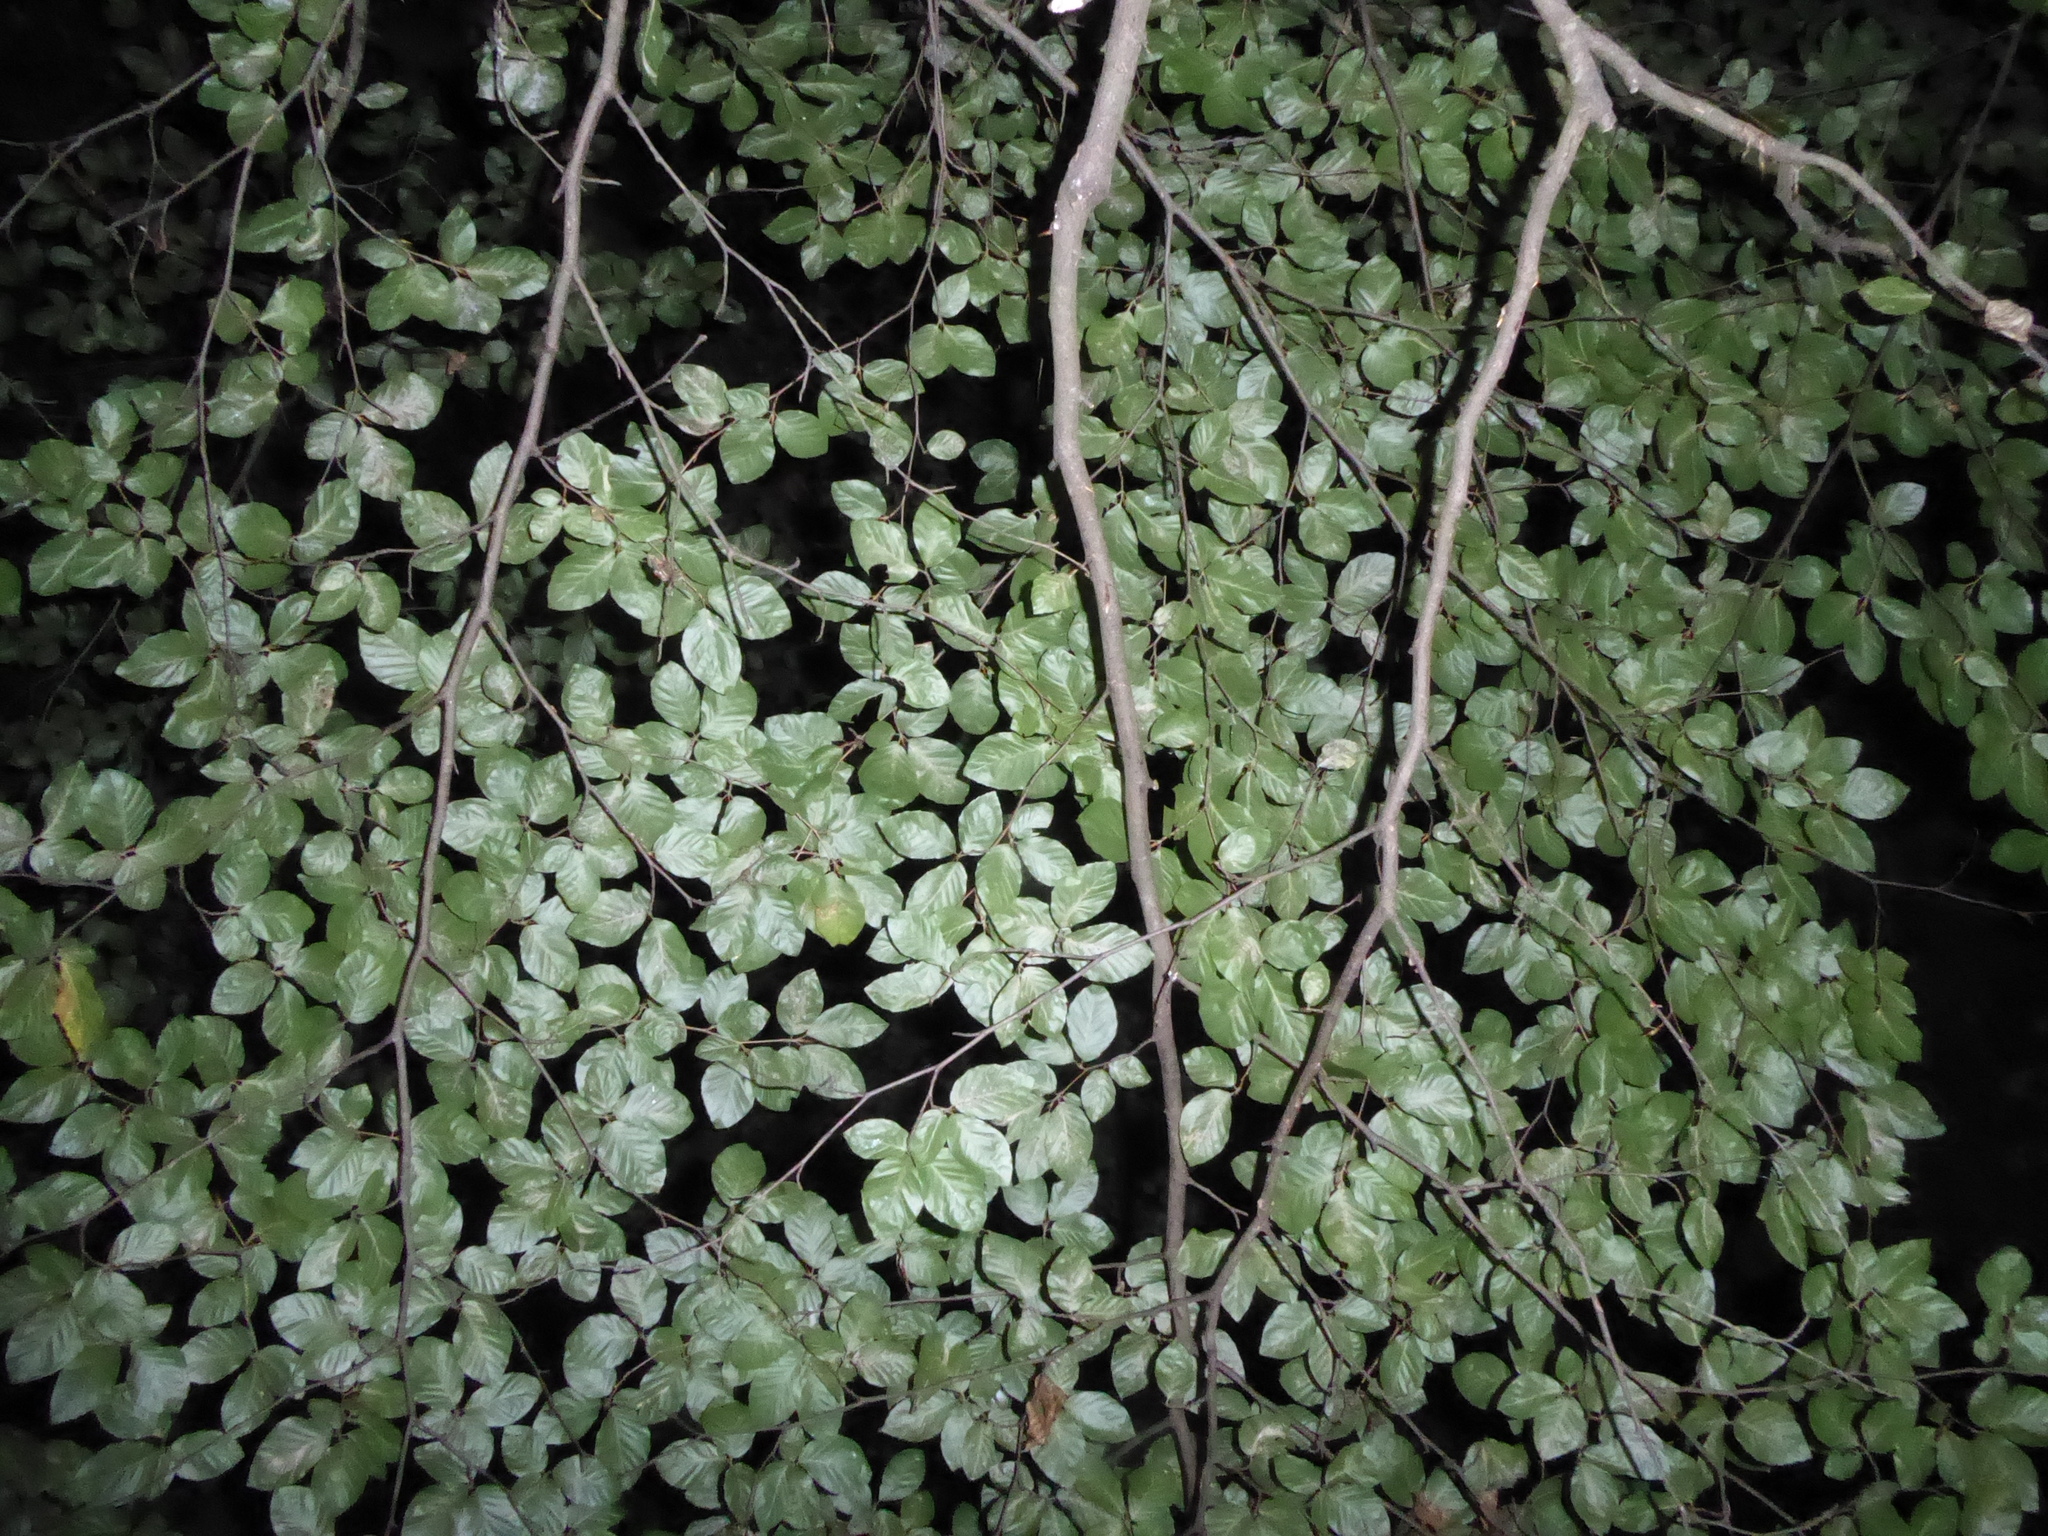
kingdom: Plantae
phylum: Tracheophyta
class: Magnoliopsida
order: Fagales
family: Fagaceae
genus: Fagus
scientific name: Fagus sylvatica
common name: Beech
